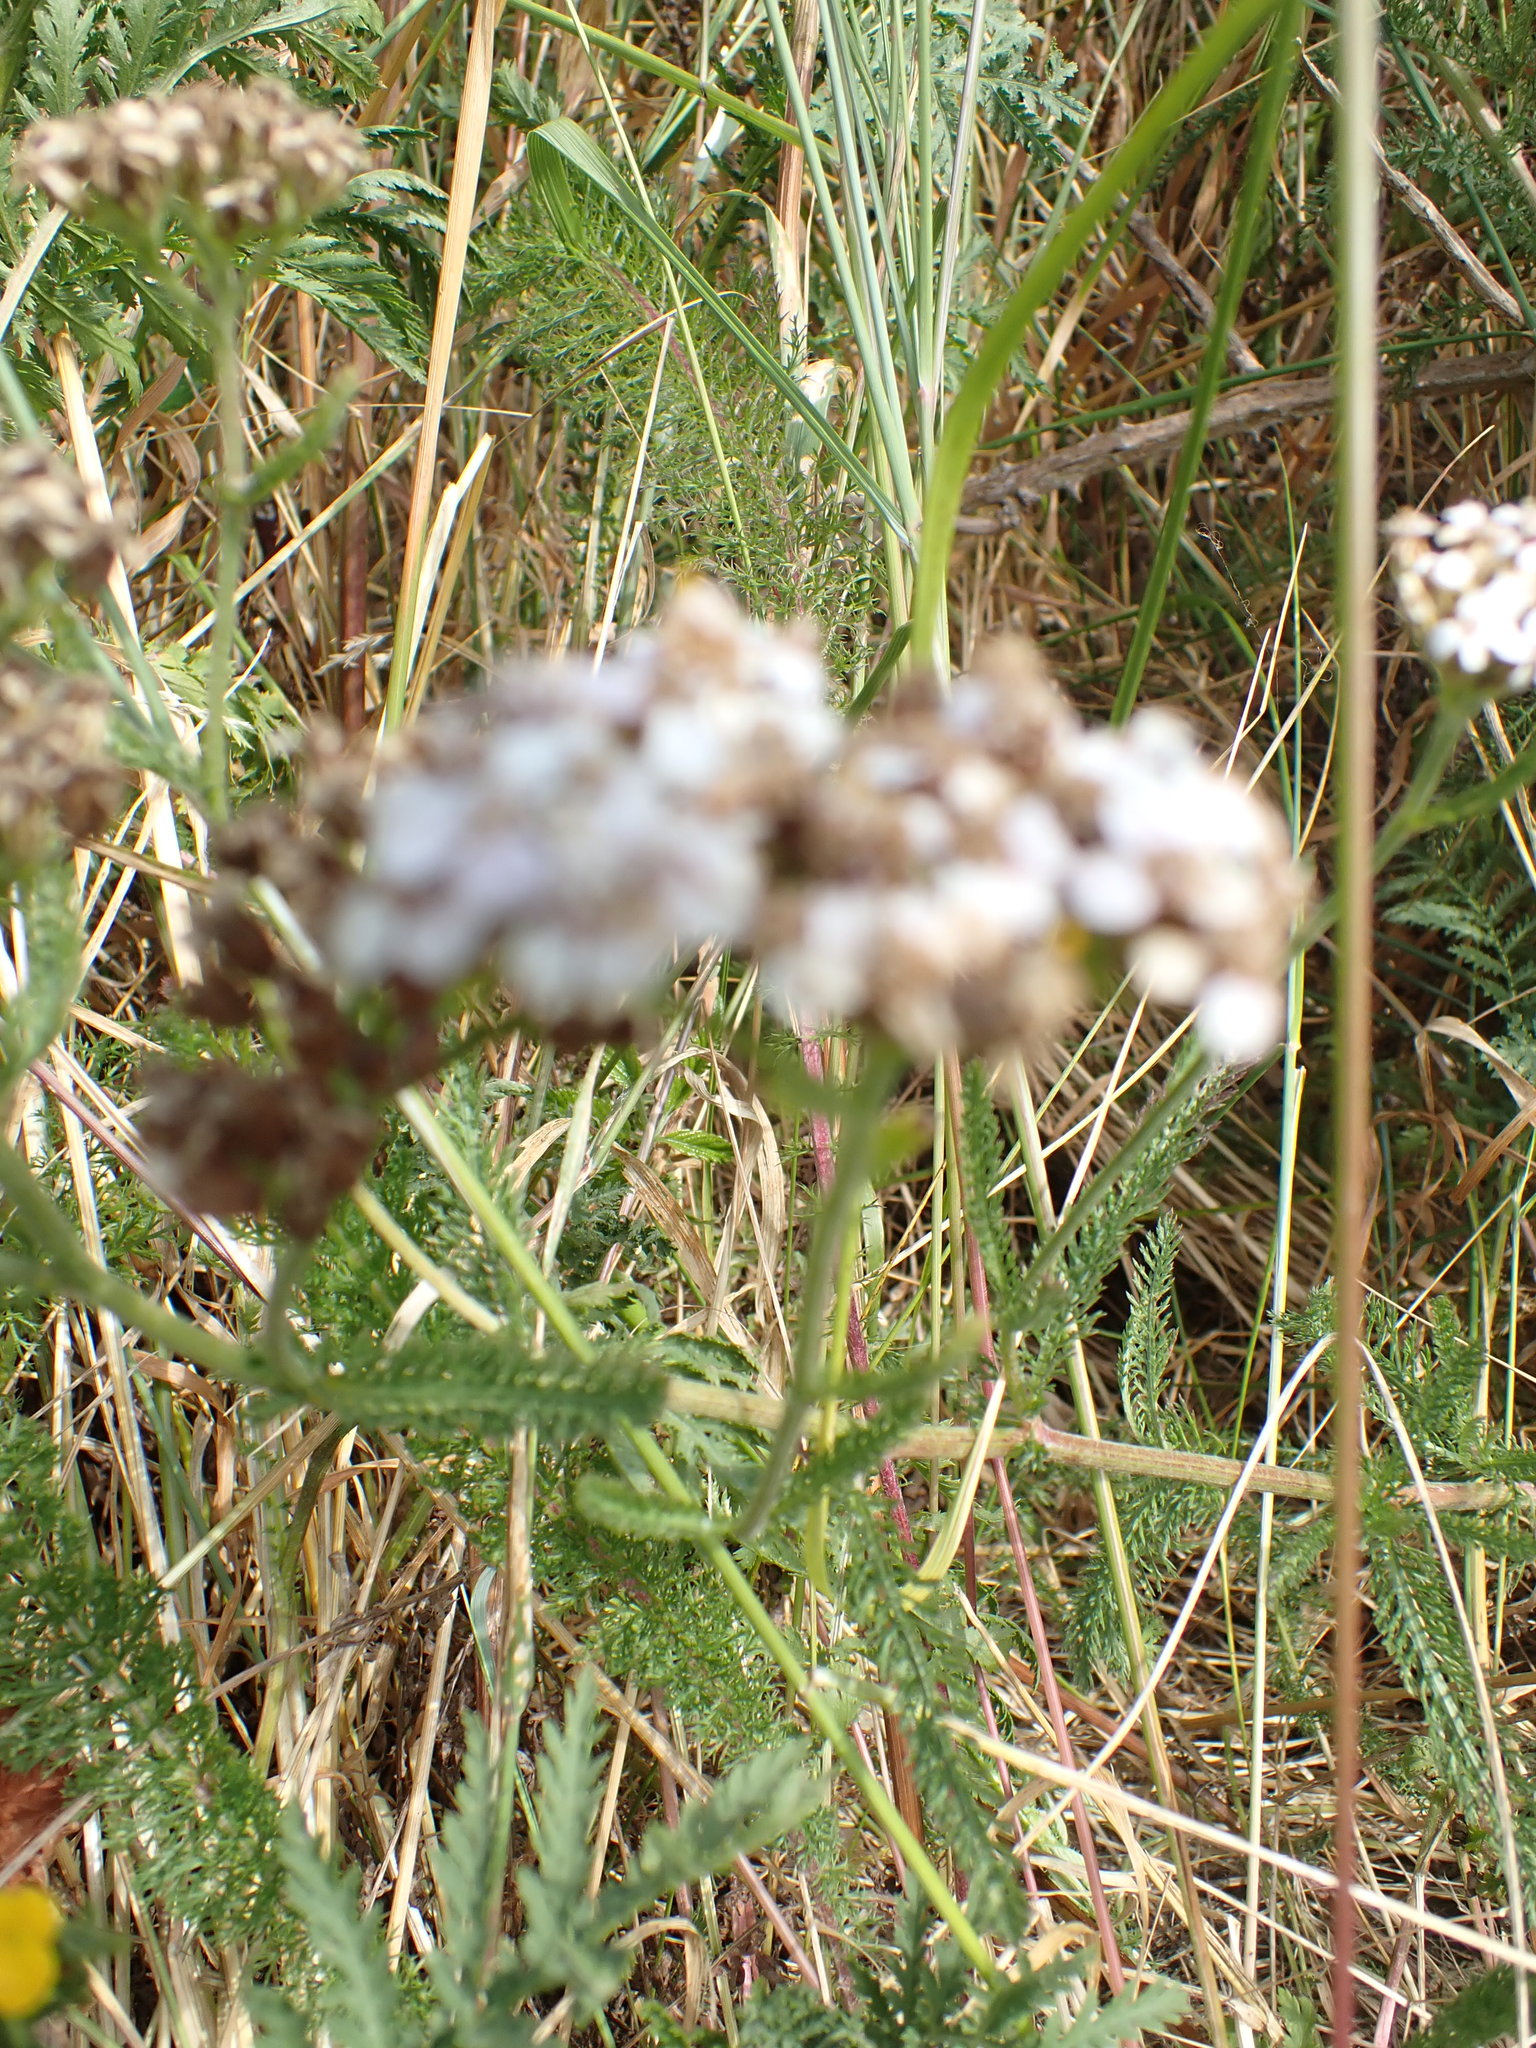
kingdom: Plantae
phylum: Tracheophyta
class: Magnoliopsida
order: Asterales
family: Asteraceae
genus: Achillea
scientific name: Achillea millefolium
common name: Yarrow
